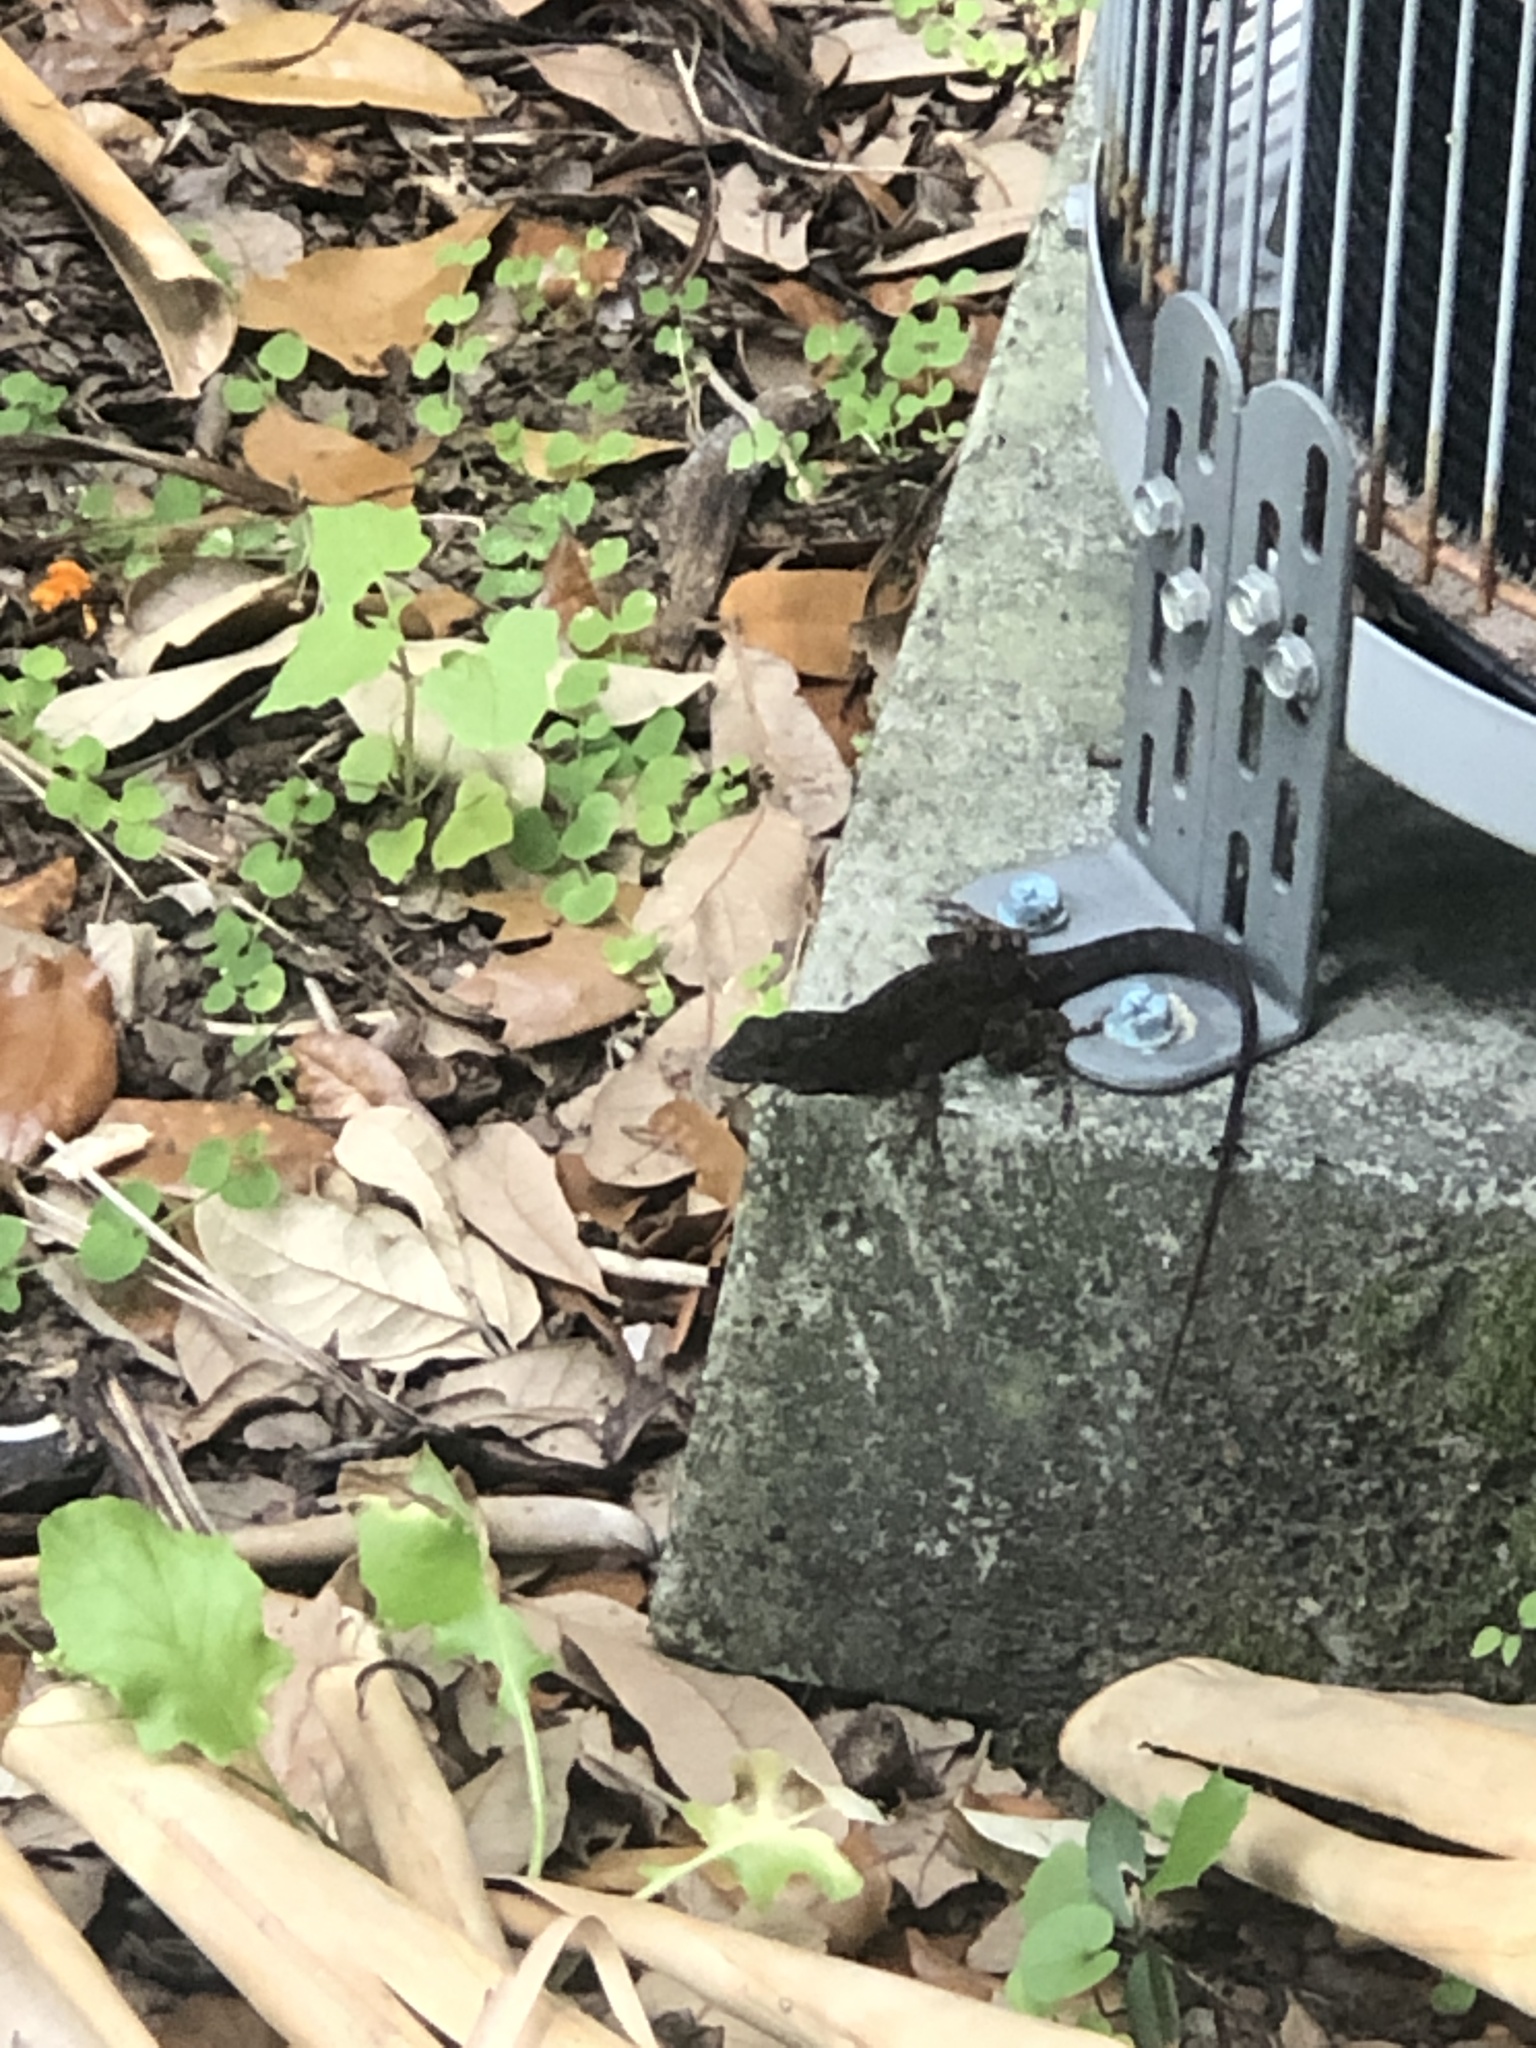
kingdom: Animalia
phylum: Chordata
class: Squamata
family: Dactyloidae
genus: Anolis
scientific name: Anolis sagrei
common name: Brown anole
